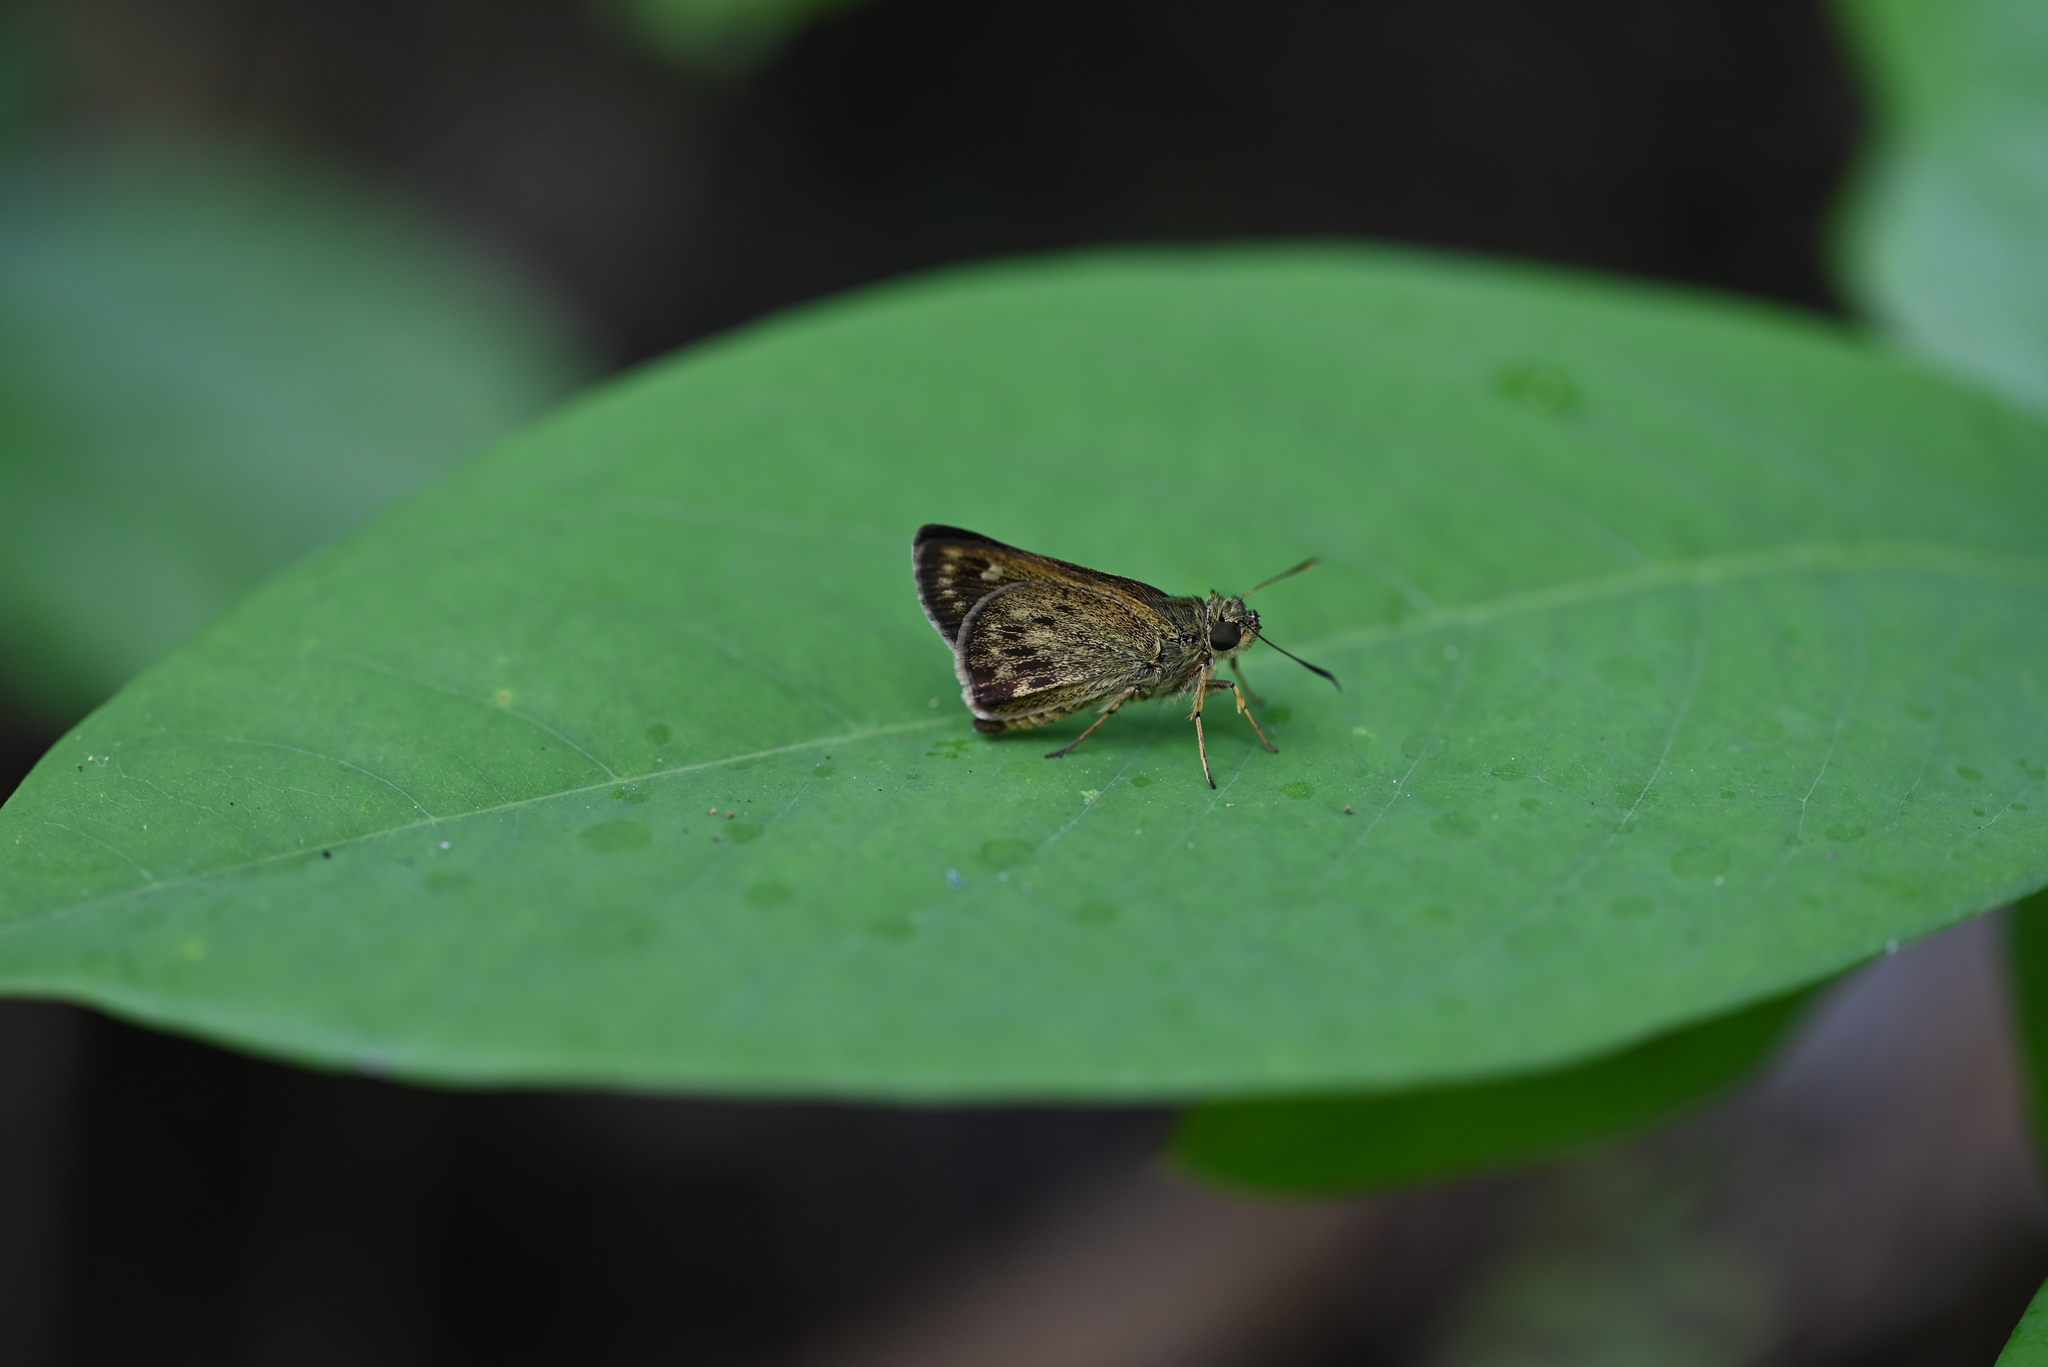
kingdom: Animalia
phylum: Arthropoda
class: Insecta
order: Lepidoptera
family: Hesperiidae
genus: Halpe
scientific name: Halpe homolea
